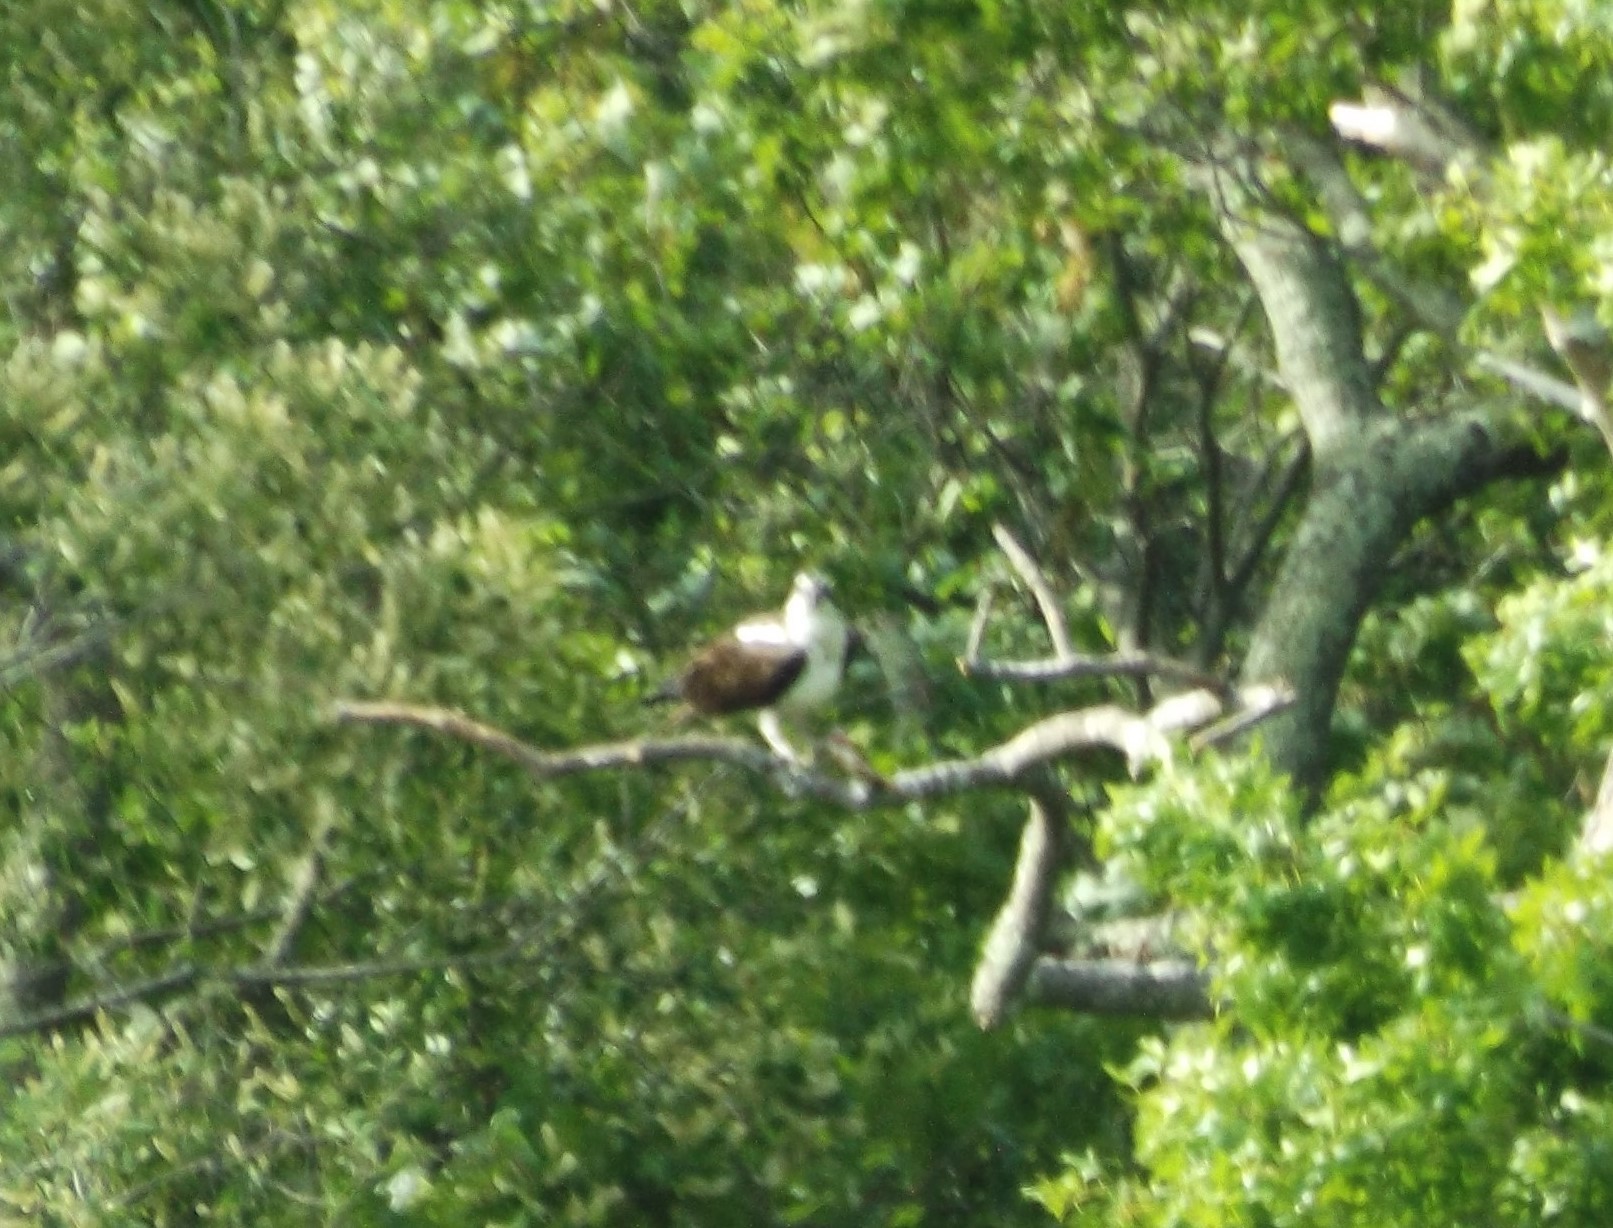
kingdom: Animalia
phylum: Chordata
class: Aves
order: Accipitriformes
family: Pandionidae
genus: Pandion
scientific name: Pandion haliaetus
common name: Osprey
